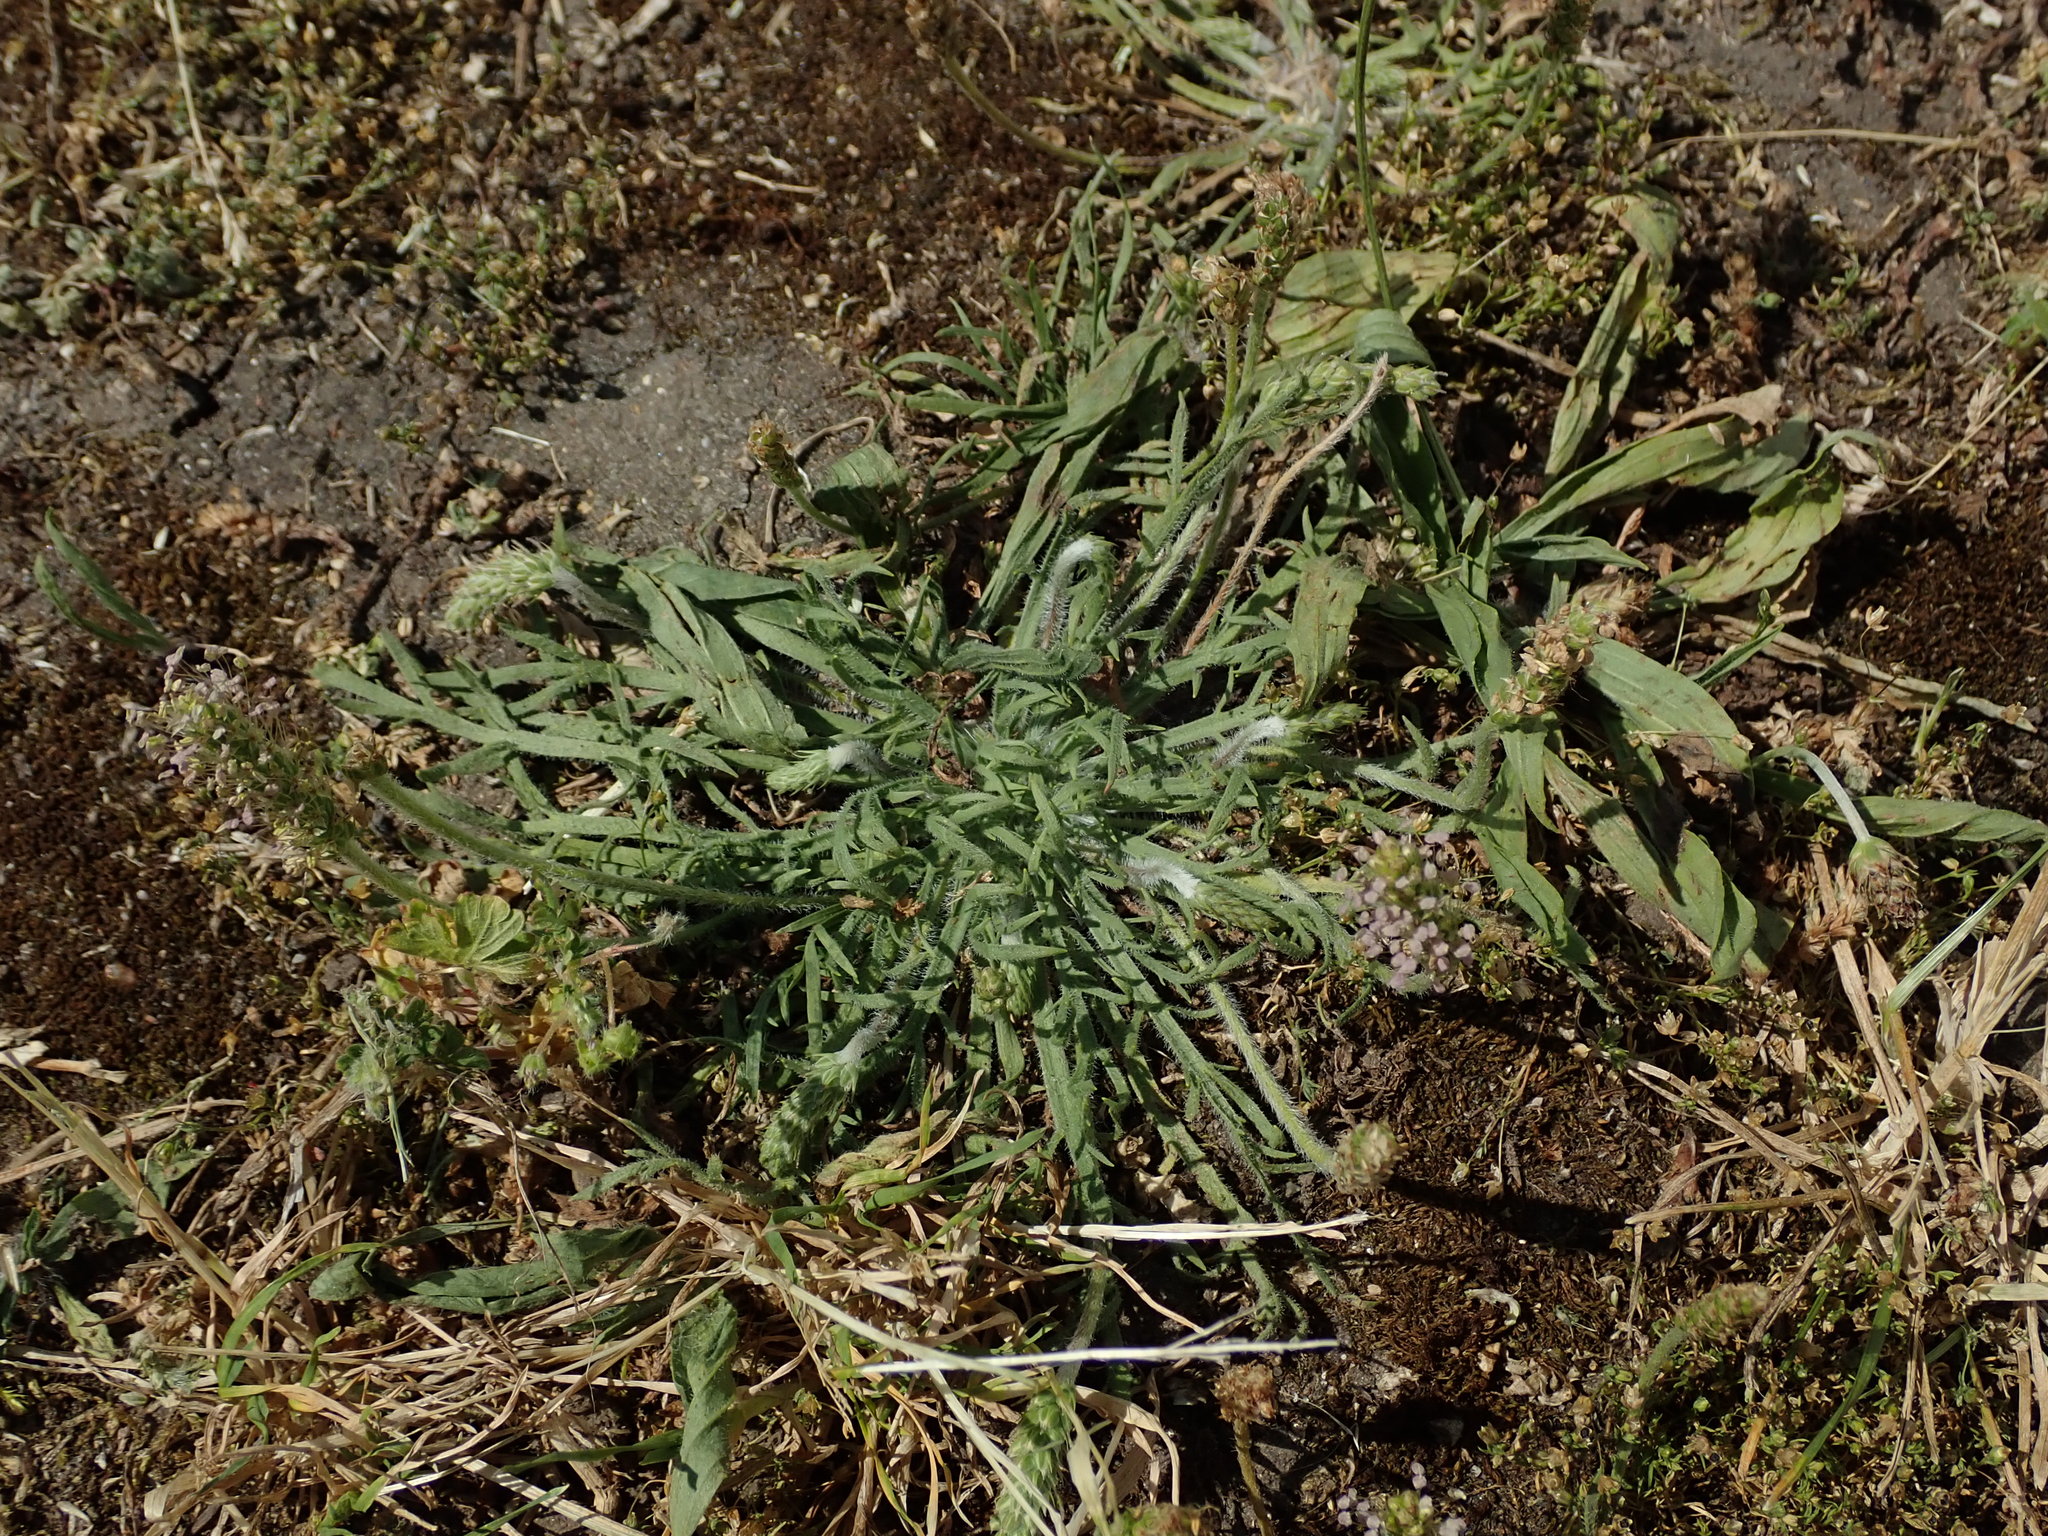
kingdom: Plantae
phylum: Tracheophyta
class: Magnoliopsida
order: Lamiales
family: Plantaginaceae
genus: Plantago
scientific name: Plantago coronopus
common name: Buck's-horn plantain
